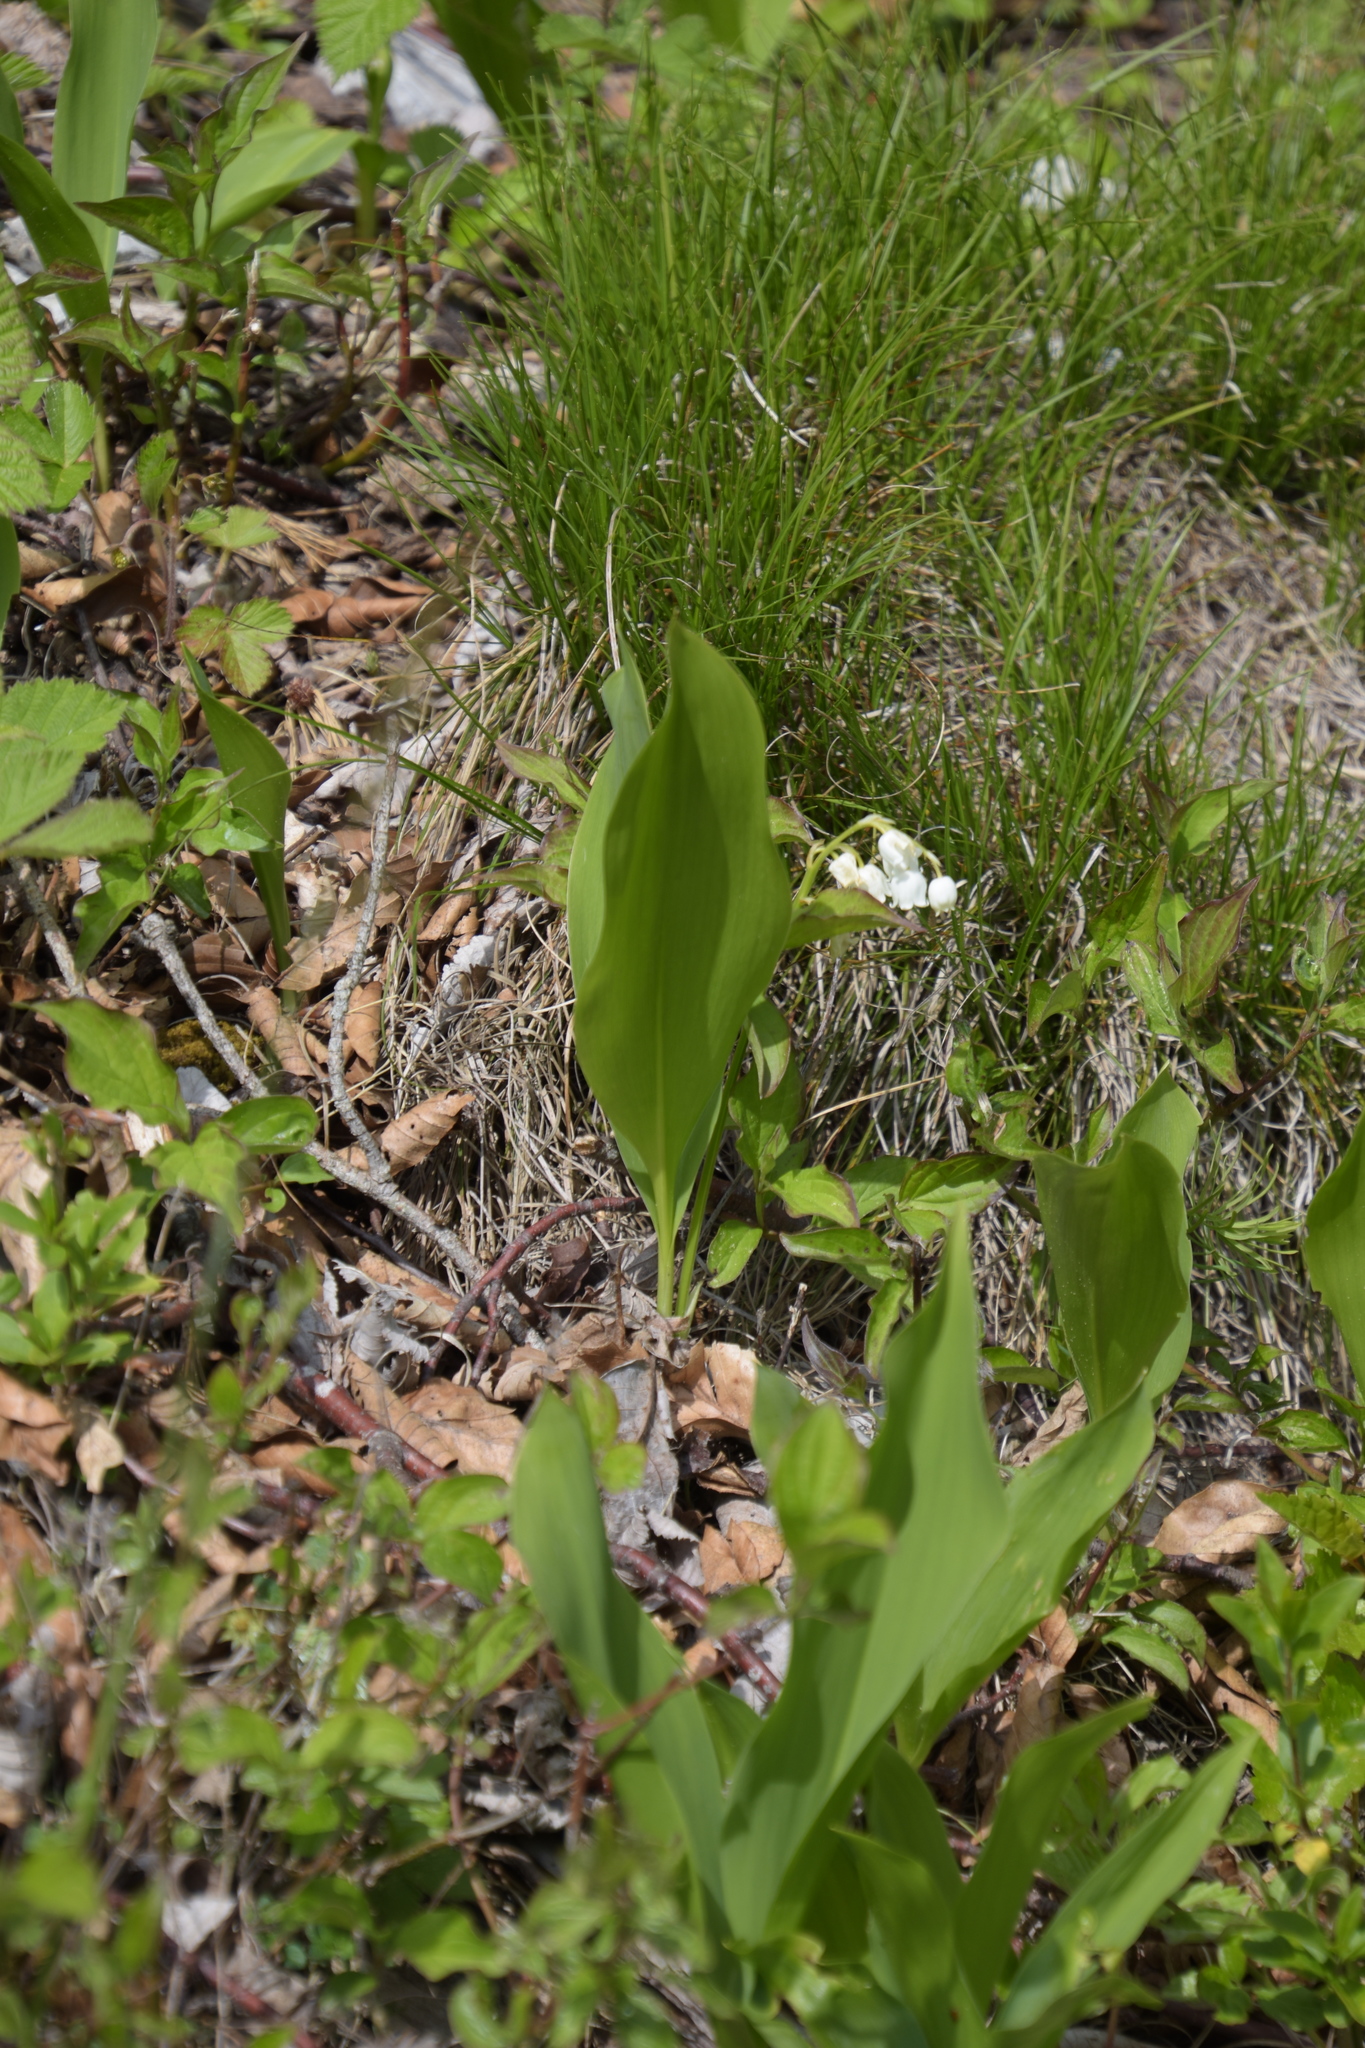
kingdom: Plantae
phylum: Tracheophyta
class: Liliopsida
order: Asparagales
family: Asparagaceae
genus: Convallaria
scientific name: Convallaria majalis
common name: Lily-of-the-valley
